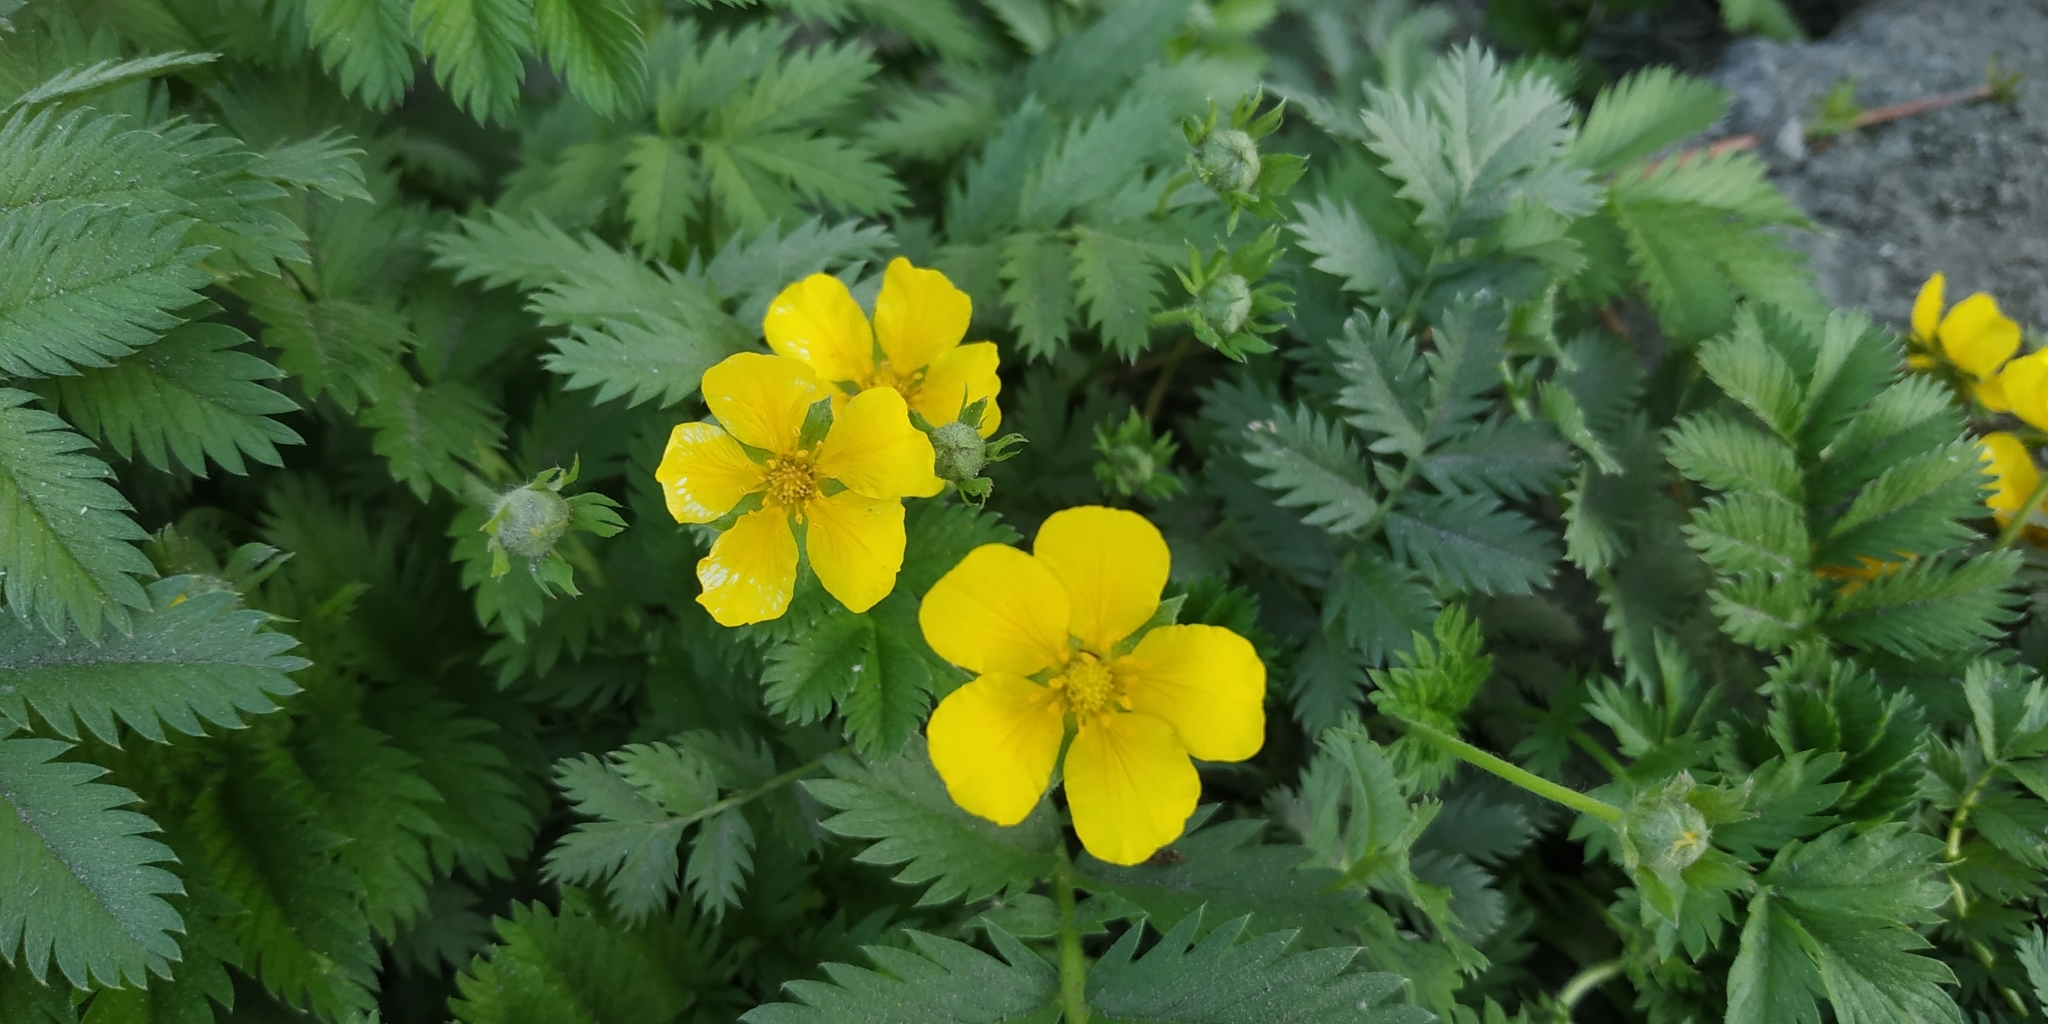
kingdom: Plantae
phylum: Tracheophyta
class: Magnoliopsida
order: Rosales
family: Rosaceae
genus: Argentina
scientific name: Argentina anserina
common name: Common silverweed
